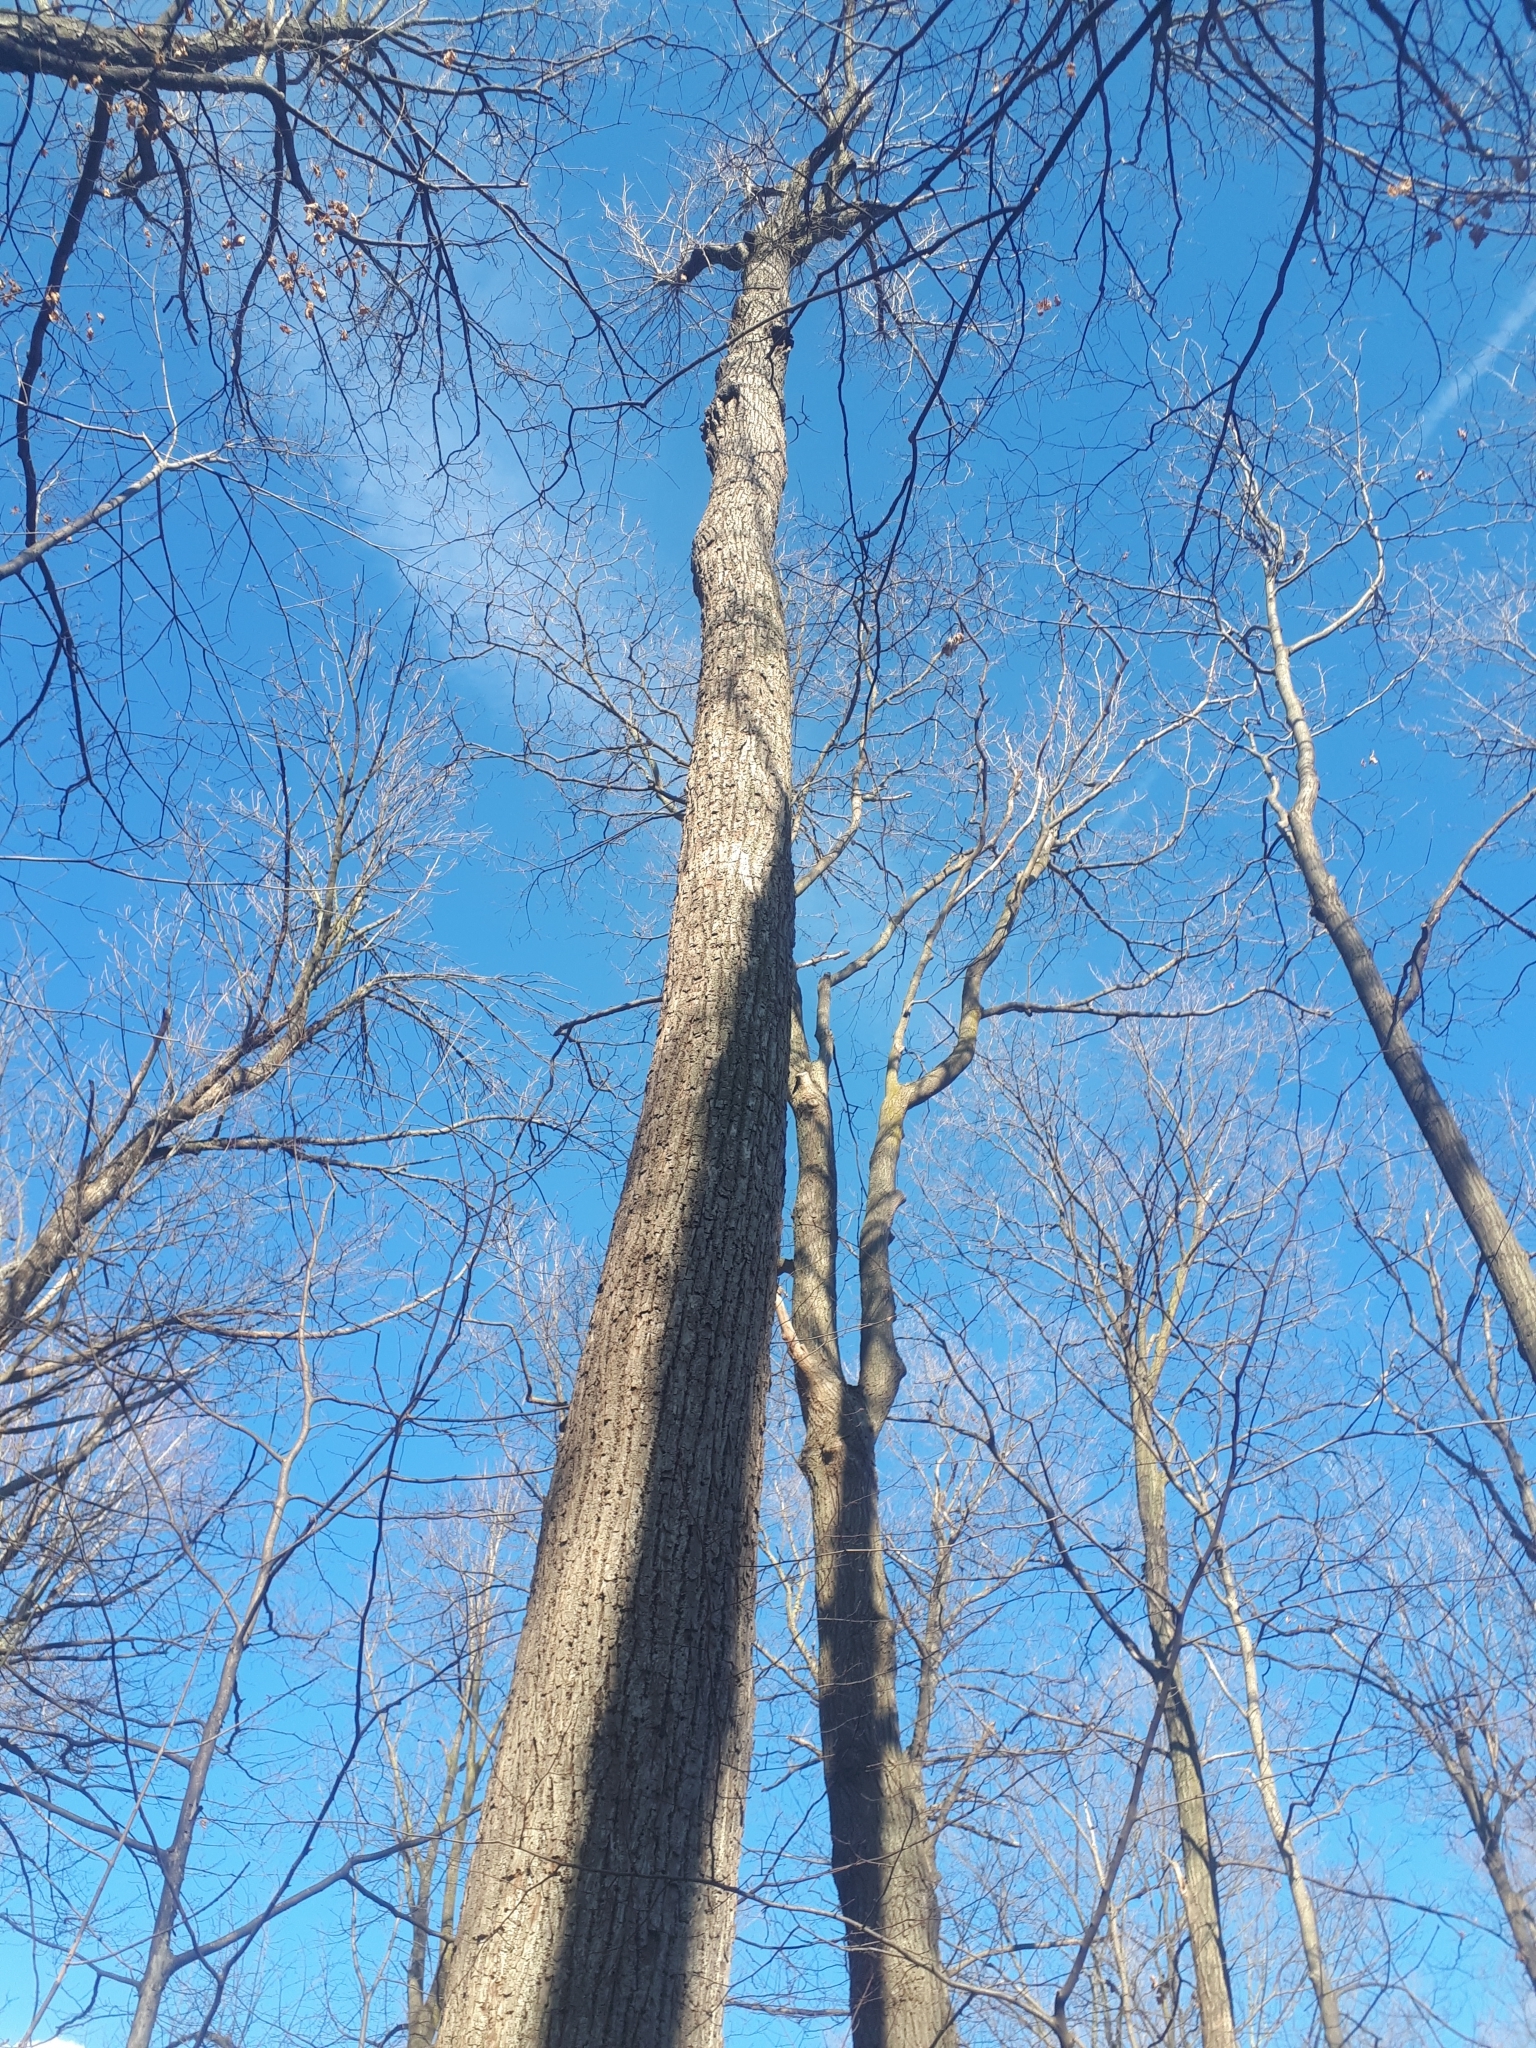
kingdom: Plantae
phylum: Tracheophyta
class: Magnoliopsida
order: Malvales
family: Malvaceae
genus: Tilia
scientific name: Tilia americana
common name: Basswood
